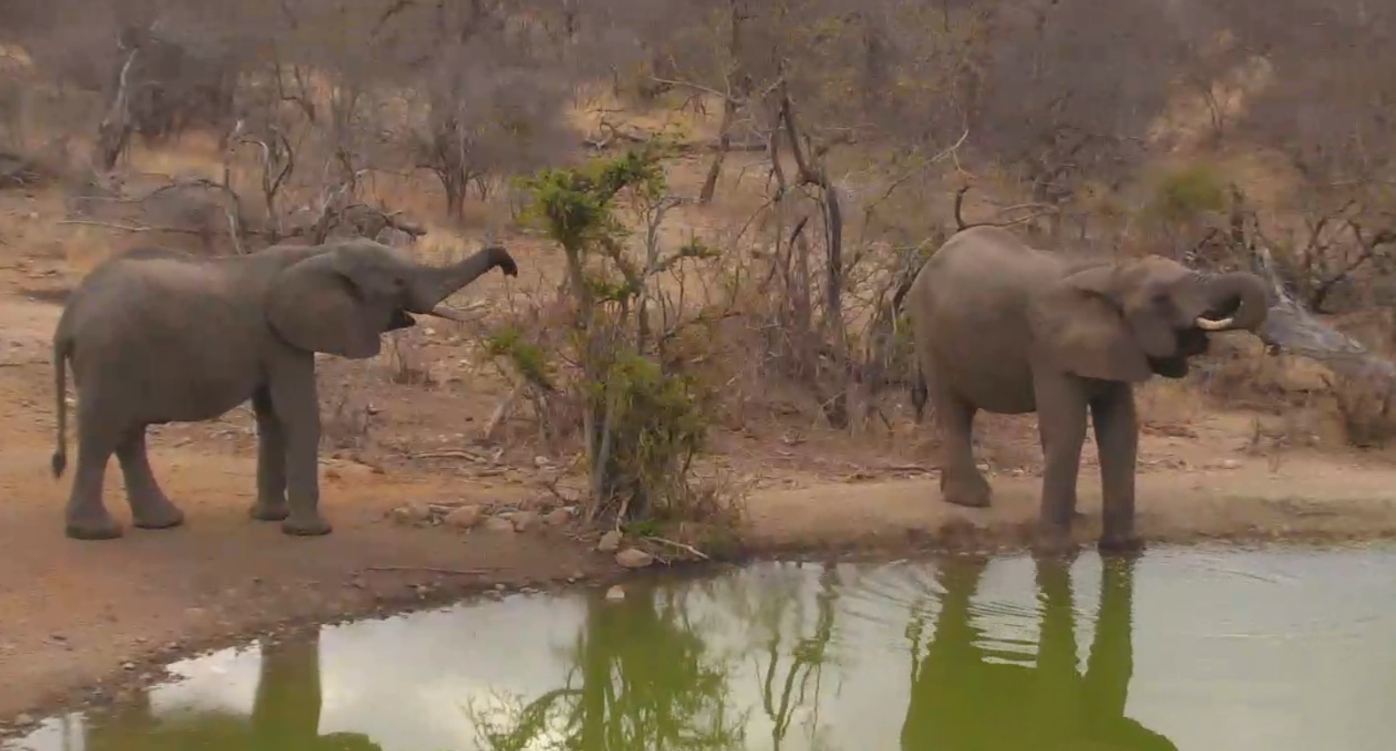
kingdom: Animalia
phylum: Chordata
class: Mammalia
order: Proboscidea
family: Elephantidae
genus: Loxodonta
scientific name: Loxodonta africana
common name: African elephant
